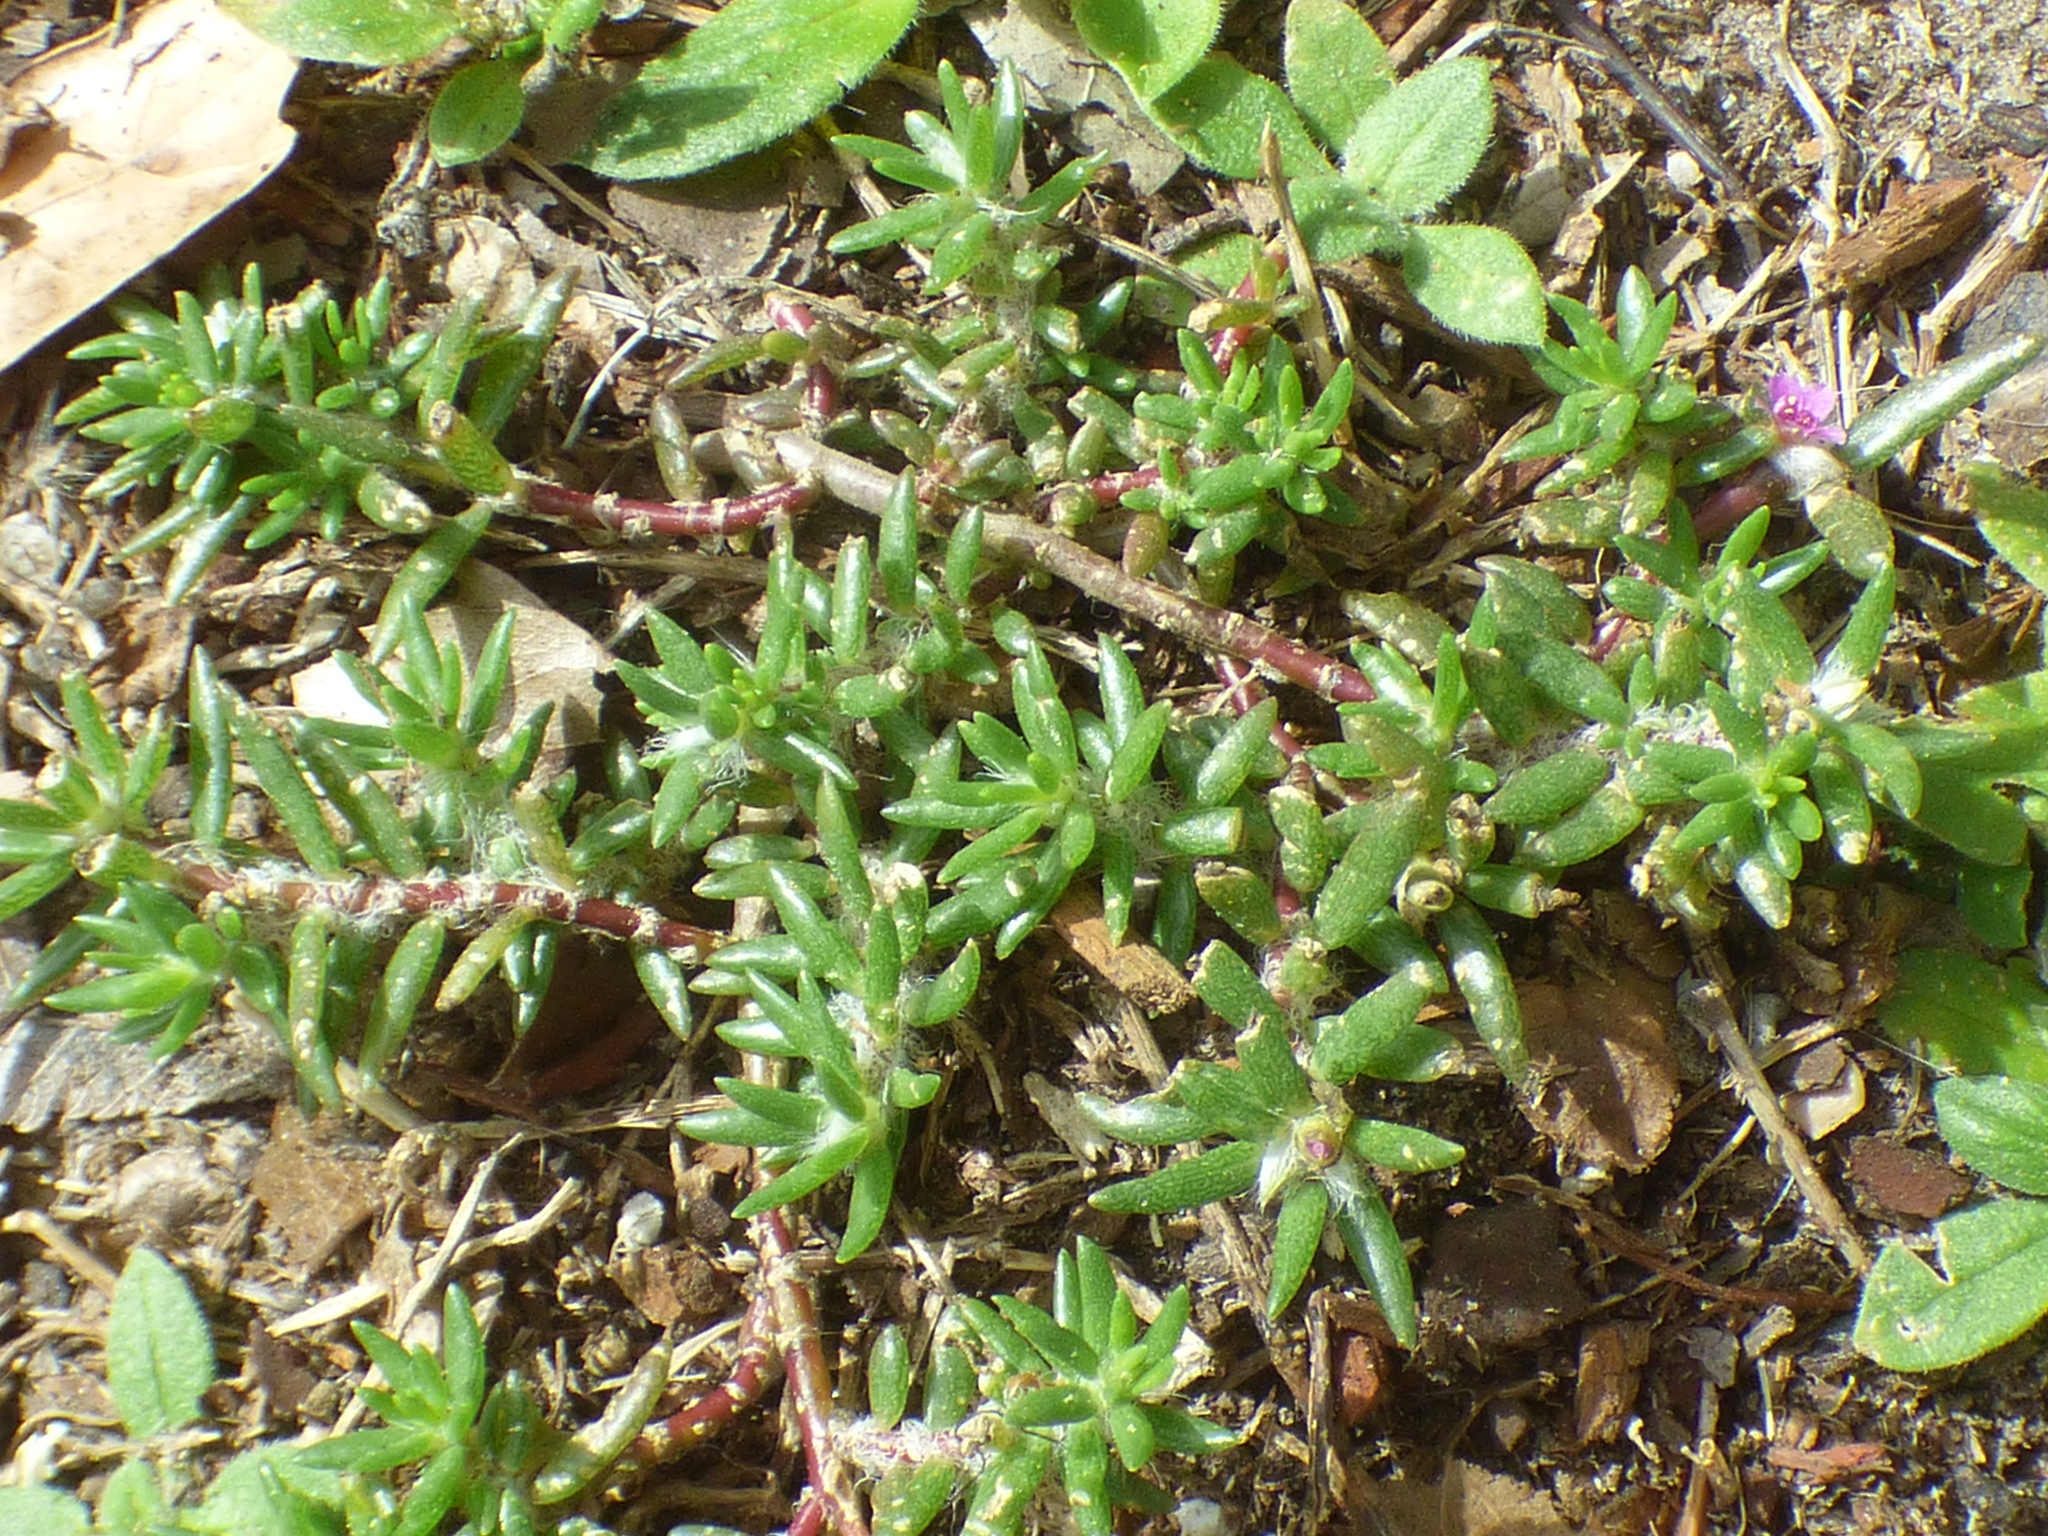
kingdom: Plantae
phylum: Tracheophyta
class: Magnoliopsida
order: Caryophyllales
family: Portulacaceae
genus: Portulaca
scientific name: Portulaca pilosa
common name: Kiss me quick
